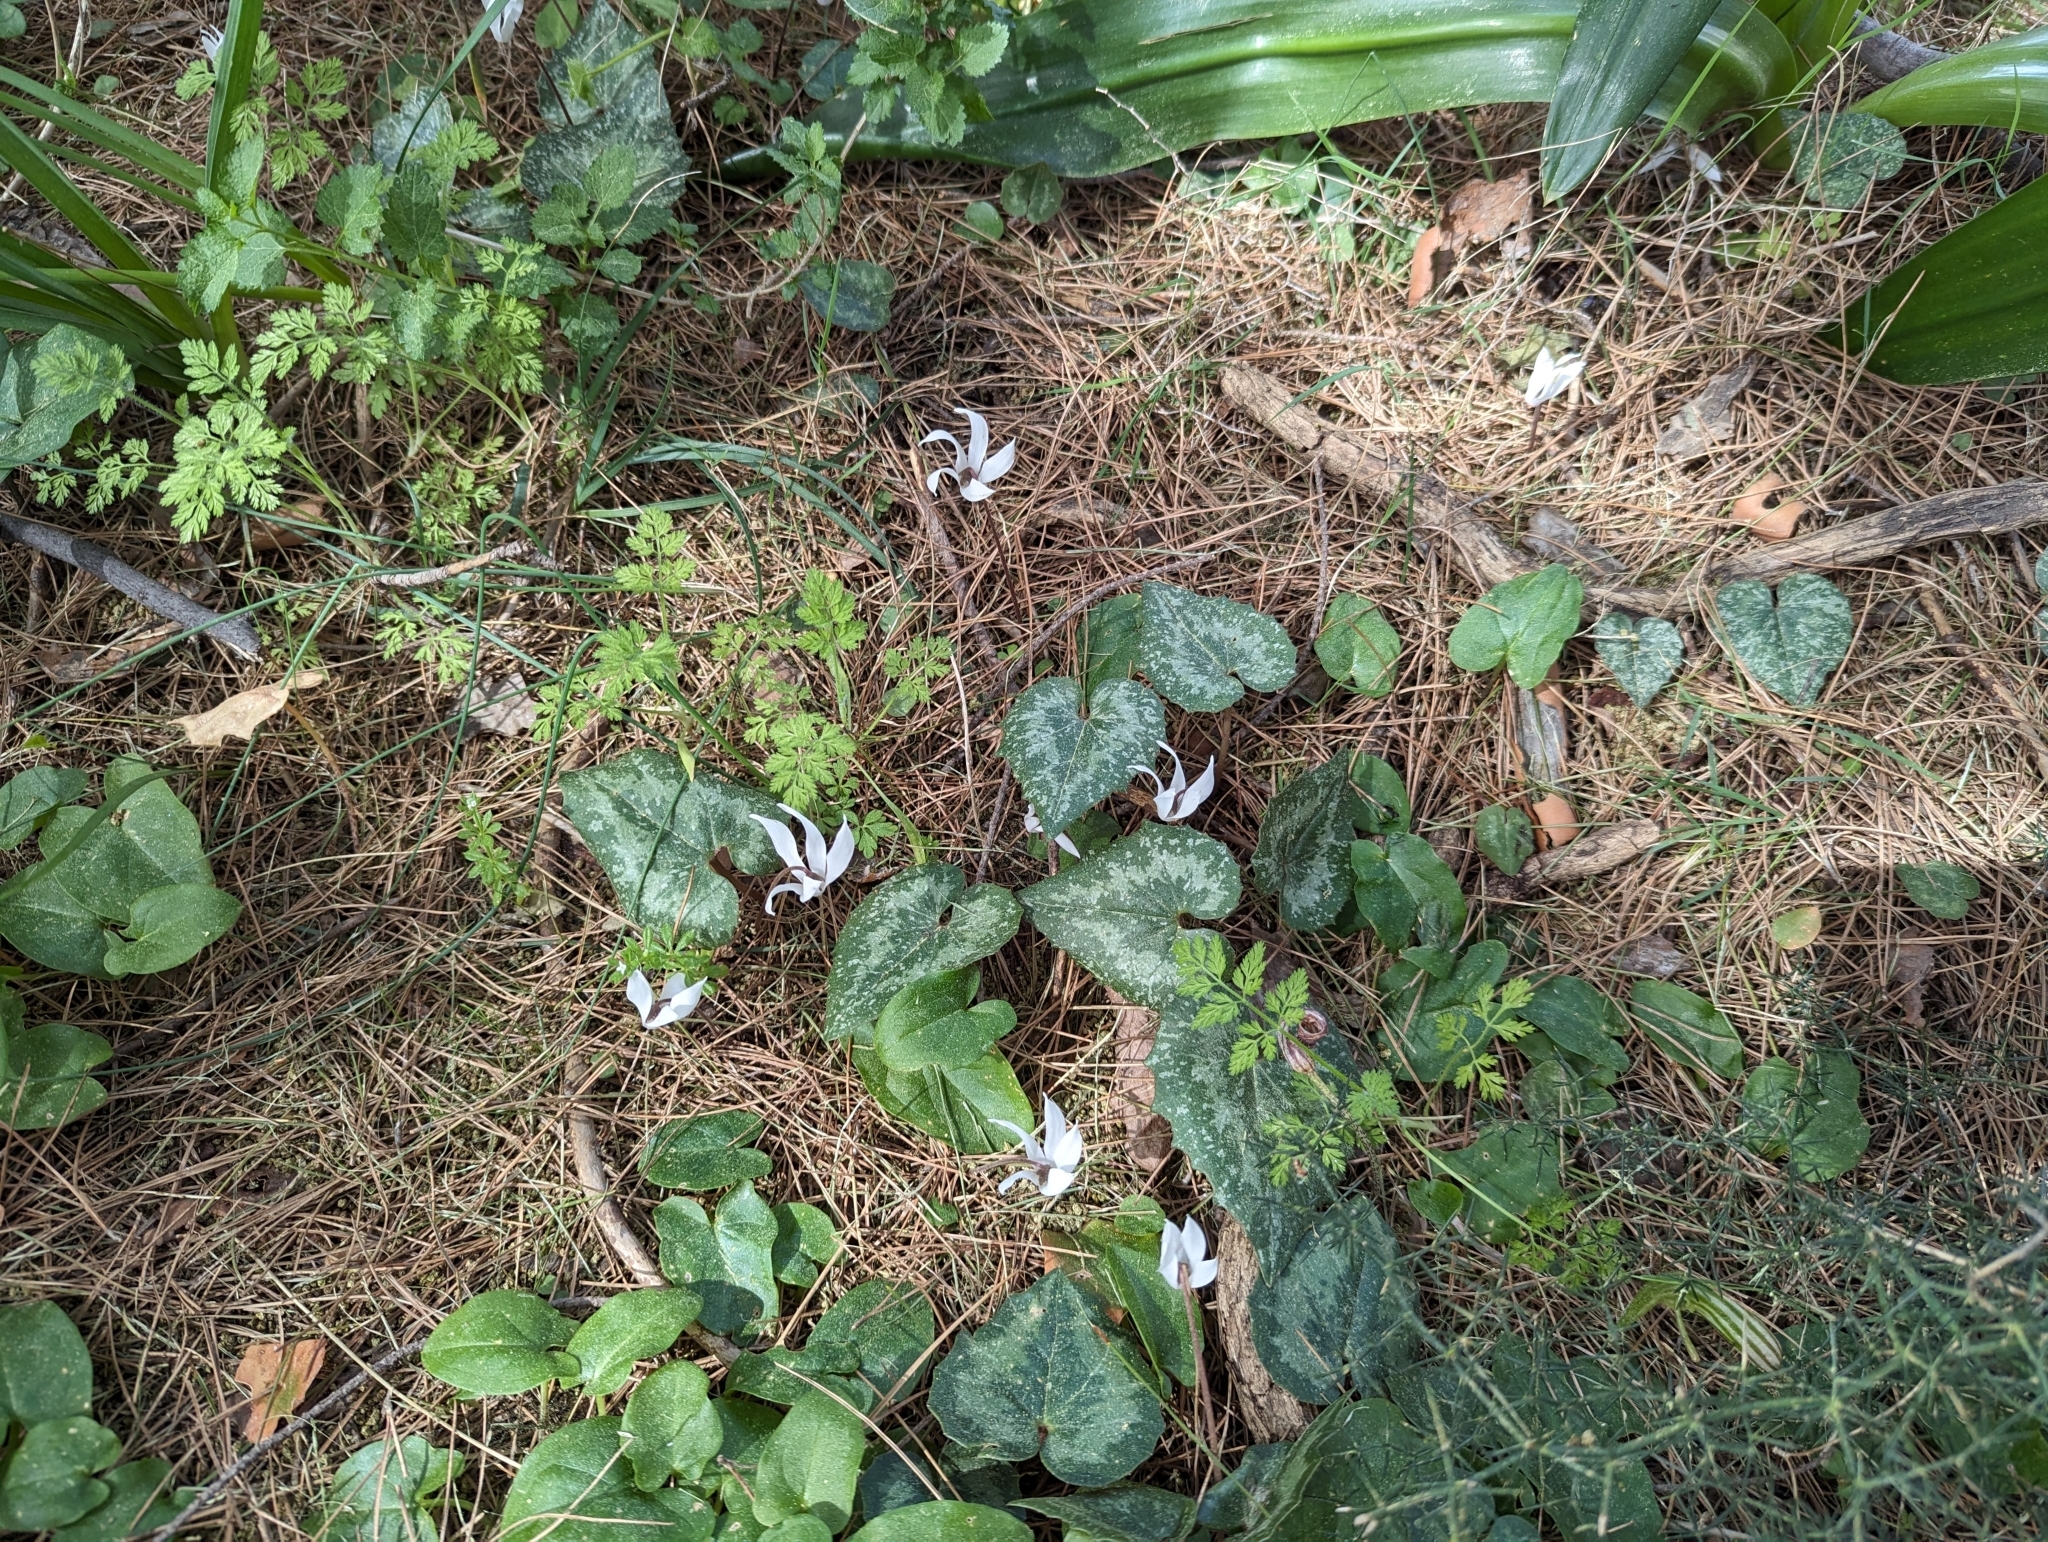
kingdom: Plantae
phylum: Tracheophyta
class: Magnoliopsida
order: Ericales
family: Primulaceae
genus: Cyclamen
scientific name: Cyclamen creticum
